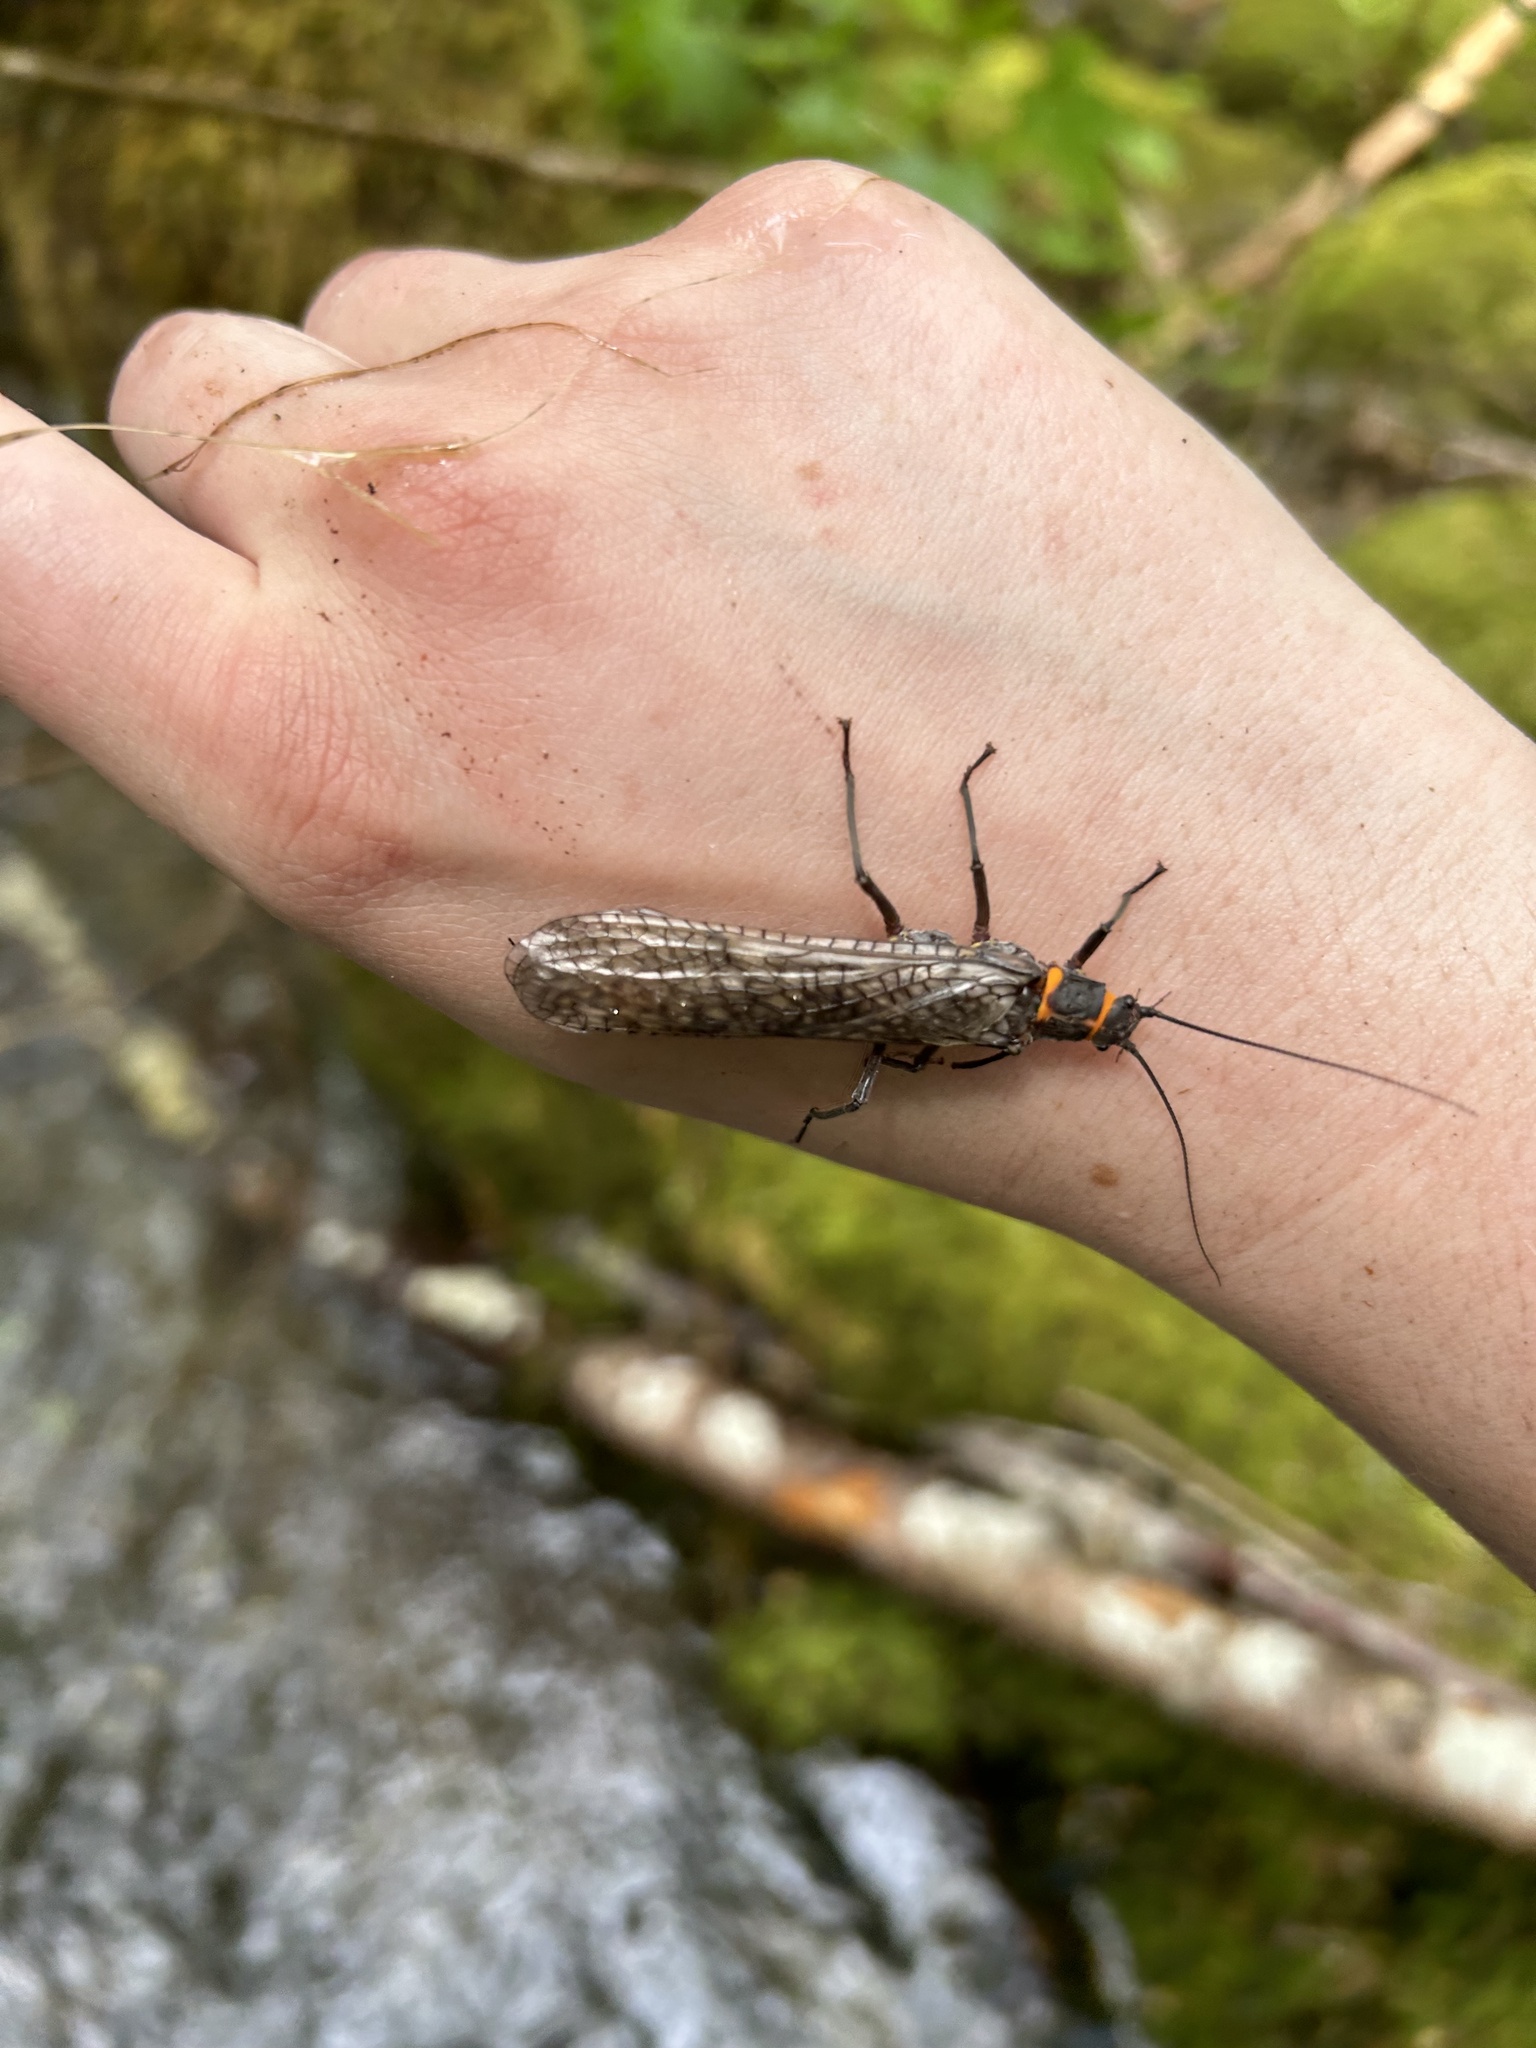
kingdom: Animalia
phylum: Arthropoda
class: Insecta
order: Plecoptera
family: Pteronarcyidae
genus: Pteronarcys
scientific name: Pteronarcys californica
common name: Giant salmonfly
